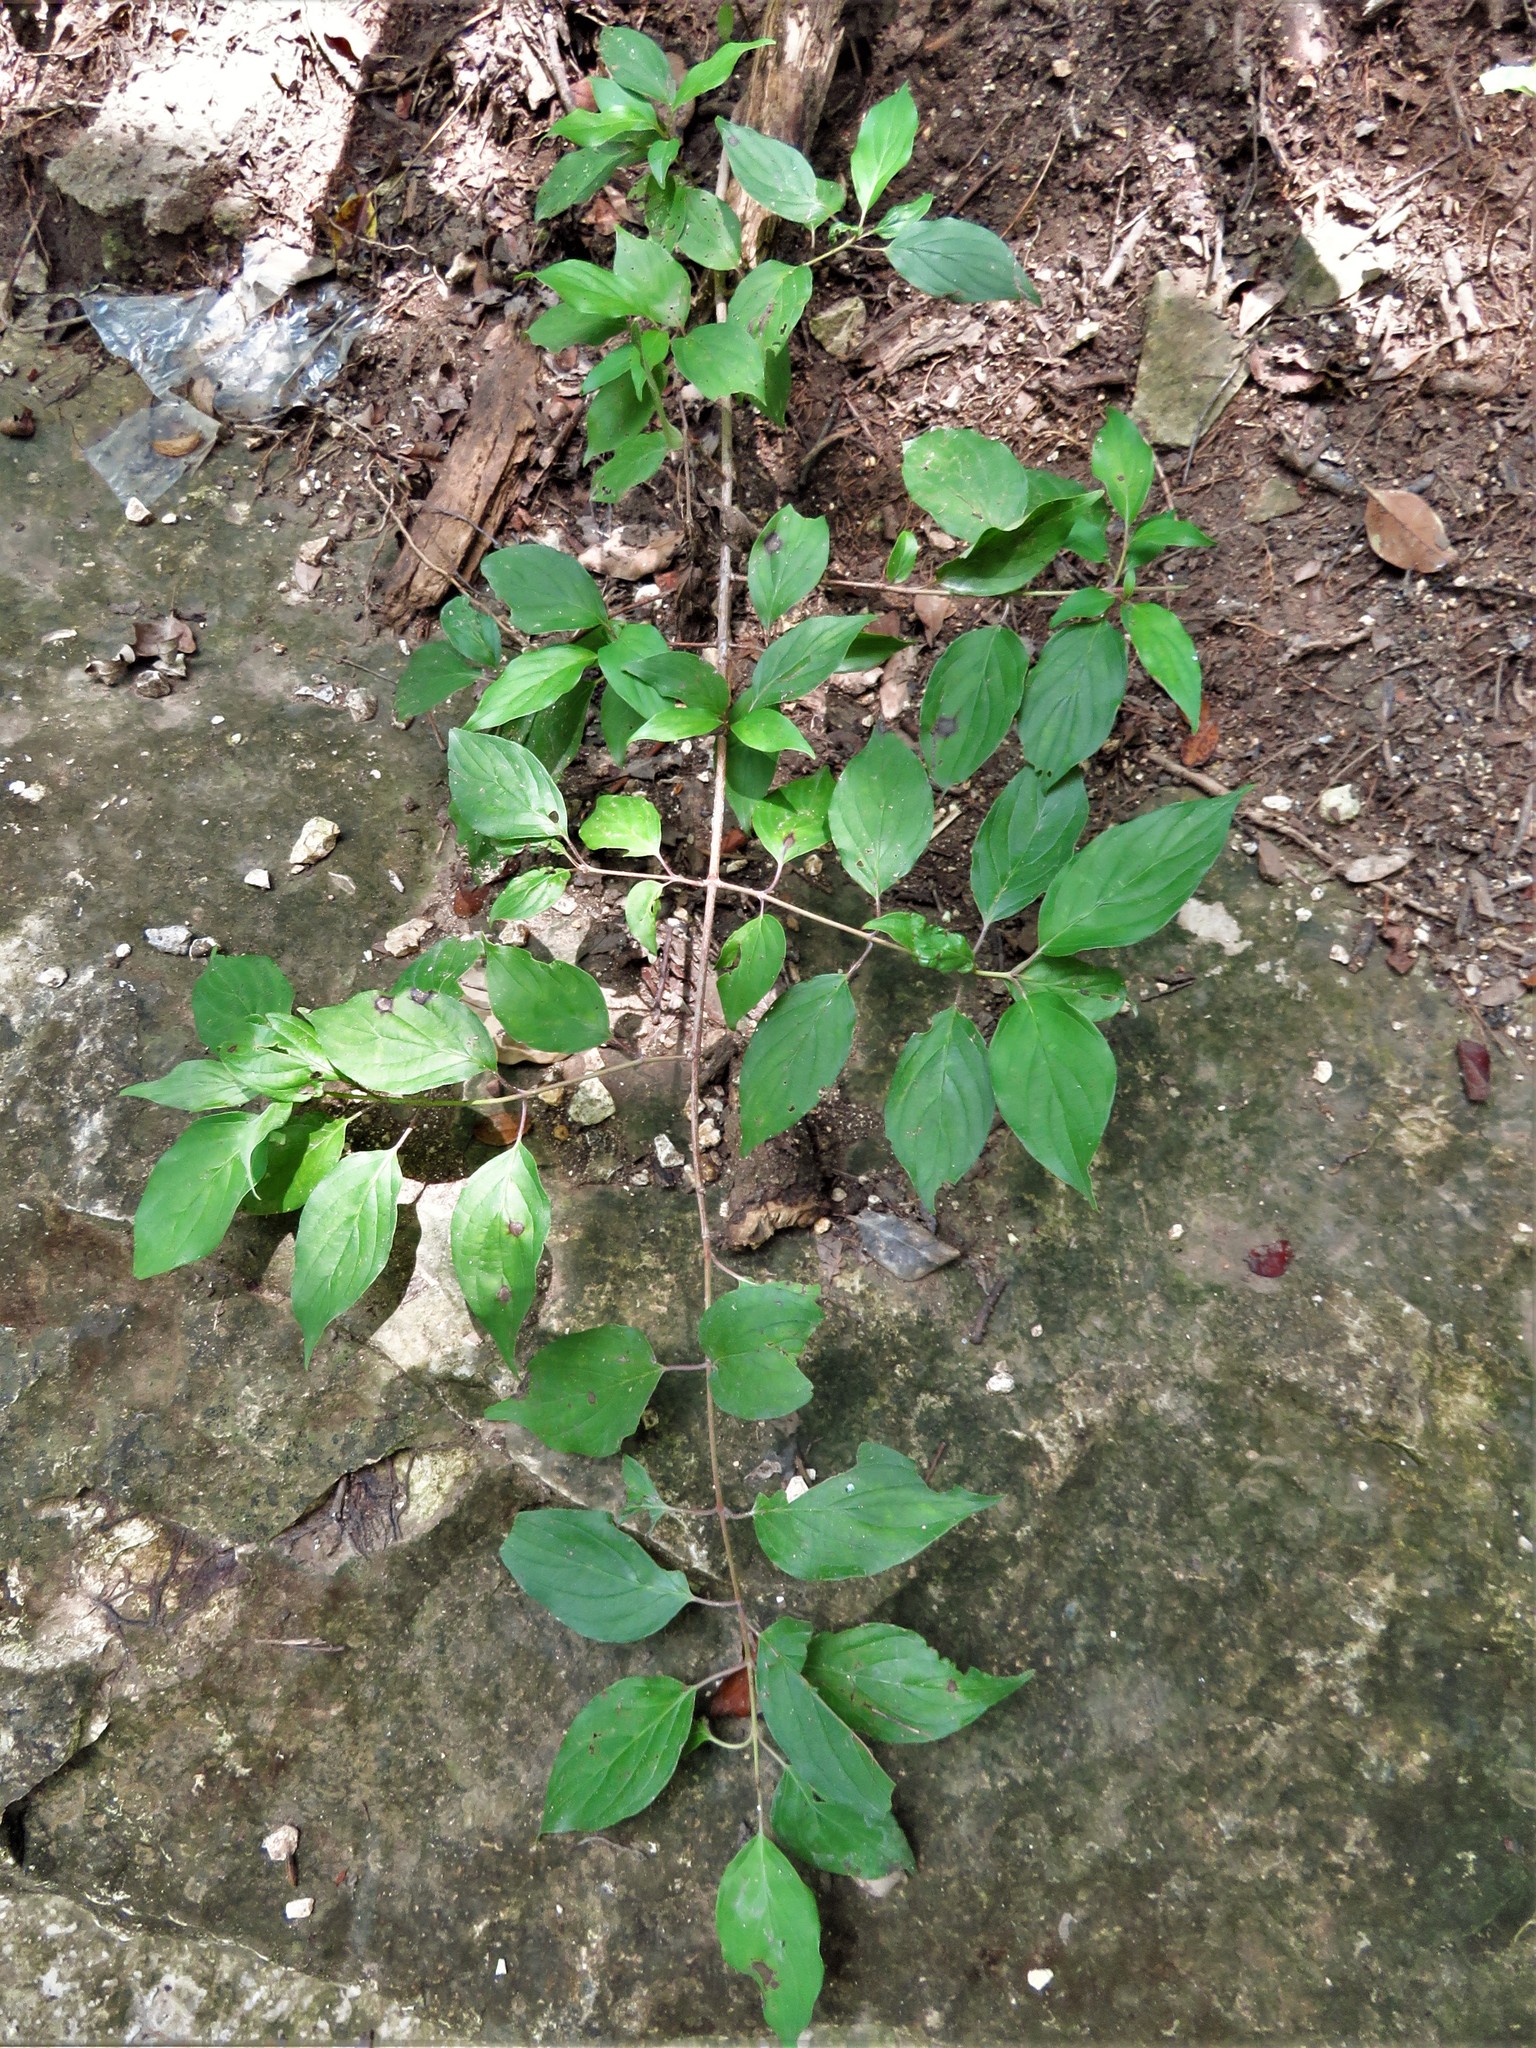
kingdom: Plantae
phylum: Tracheophyta
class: Magnoliopsida
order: Cornales
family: Cornaceae
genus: Cornus
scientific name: Cornus drummondii
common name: Rough-leaf dogwood
